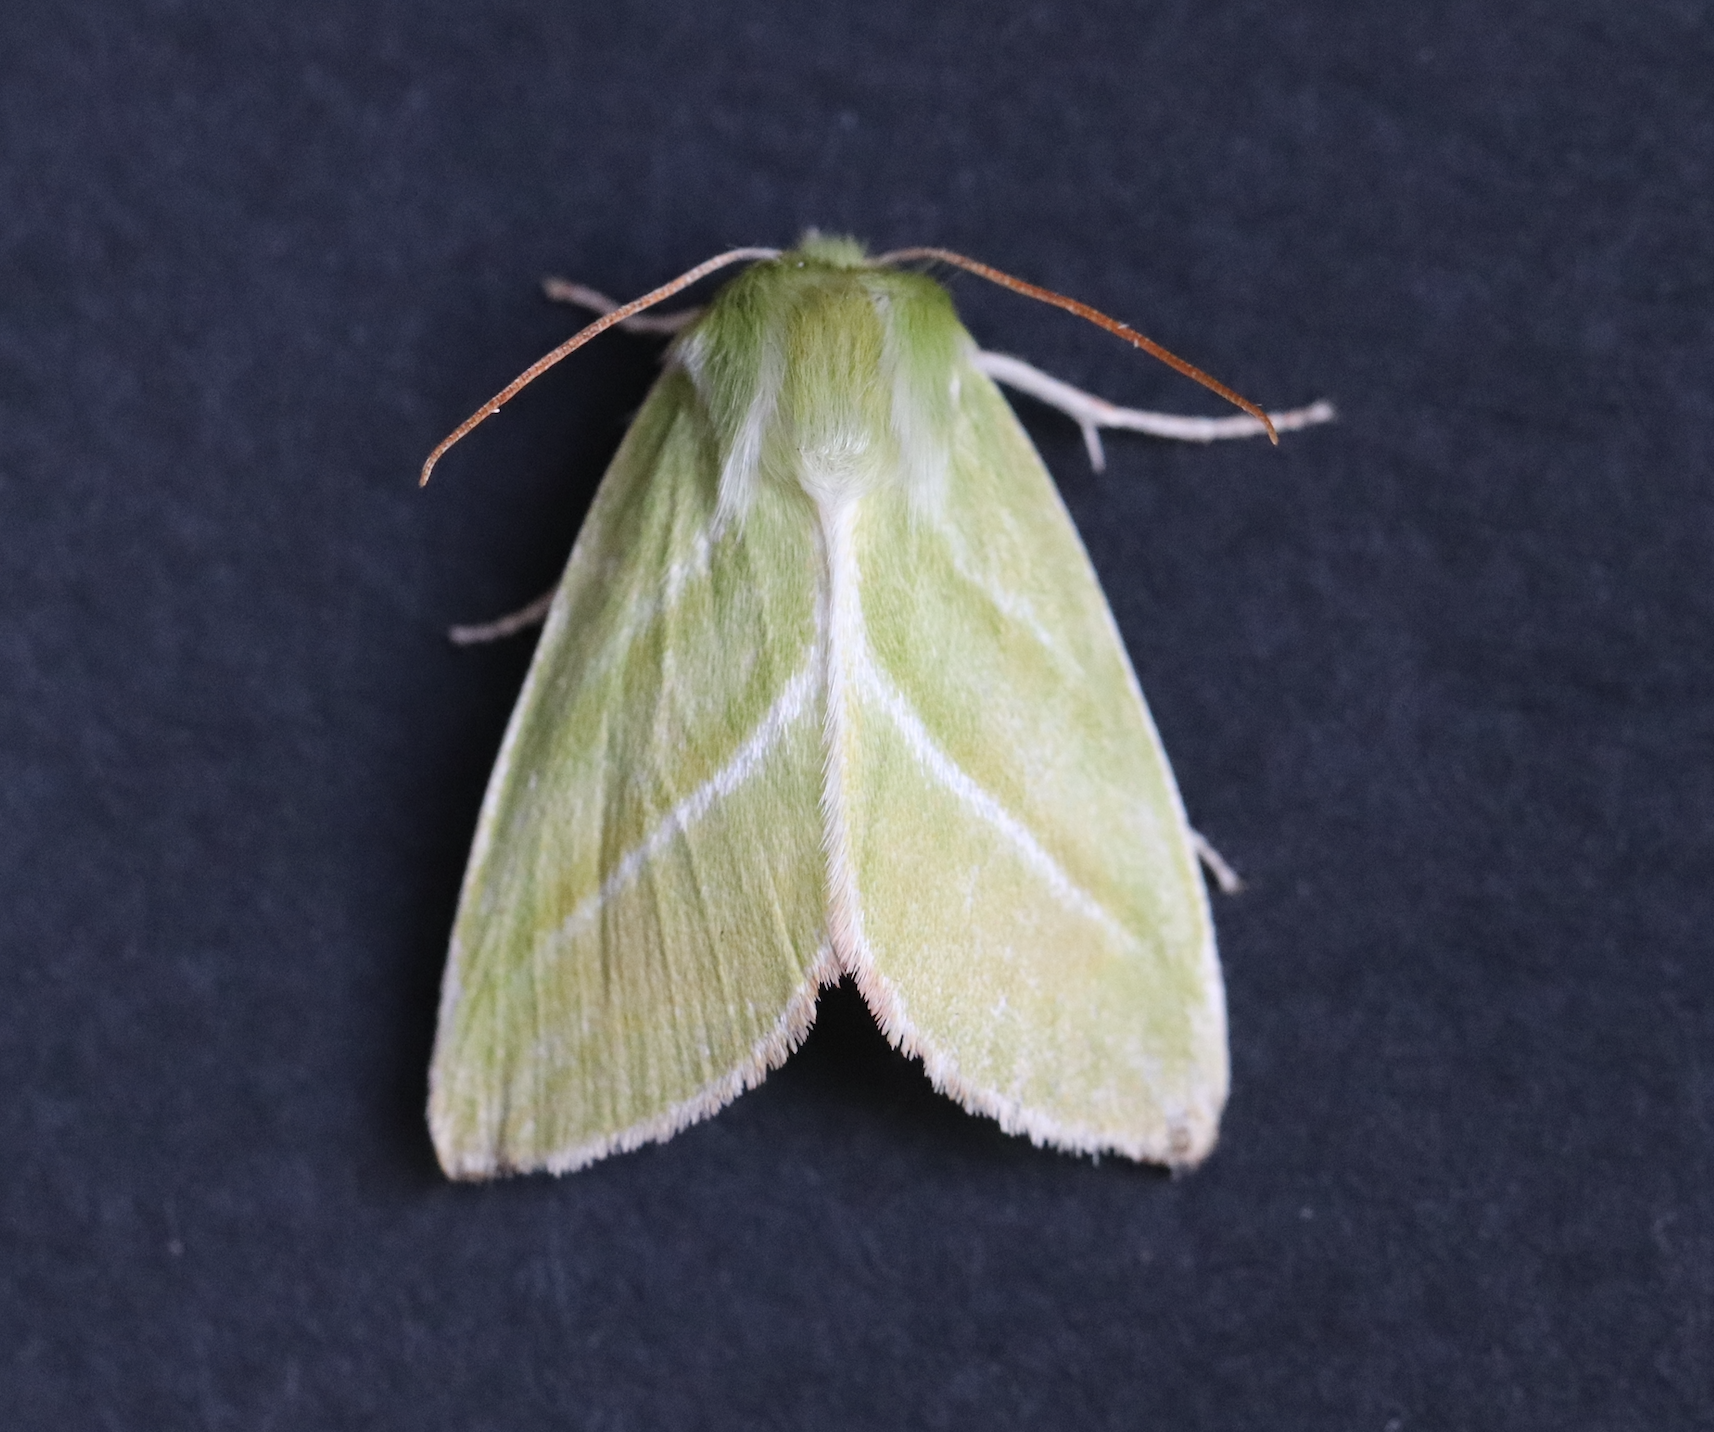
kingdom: Animalia
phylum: Arthropoda
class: Insecta
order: Lepidoptera
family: Nolidae
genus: Pseudoips
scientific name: Pseudoips prasinana
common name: Green silver-lines
